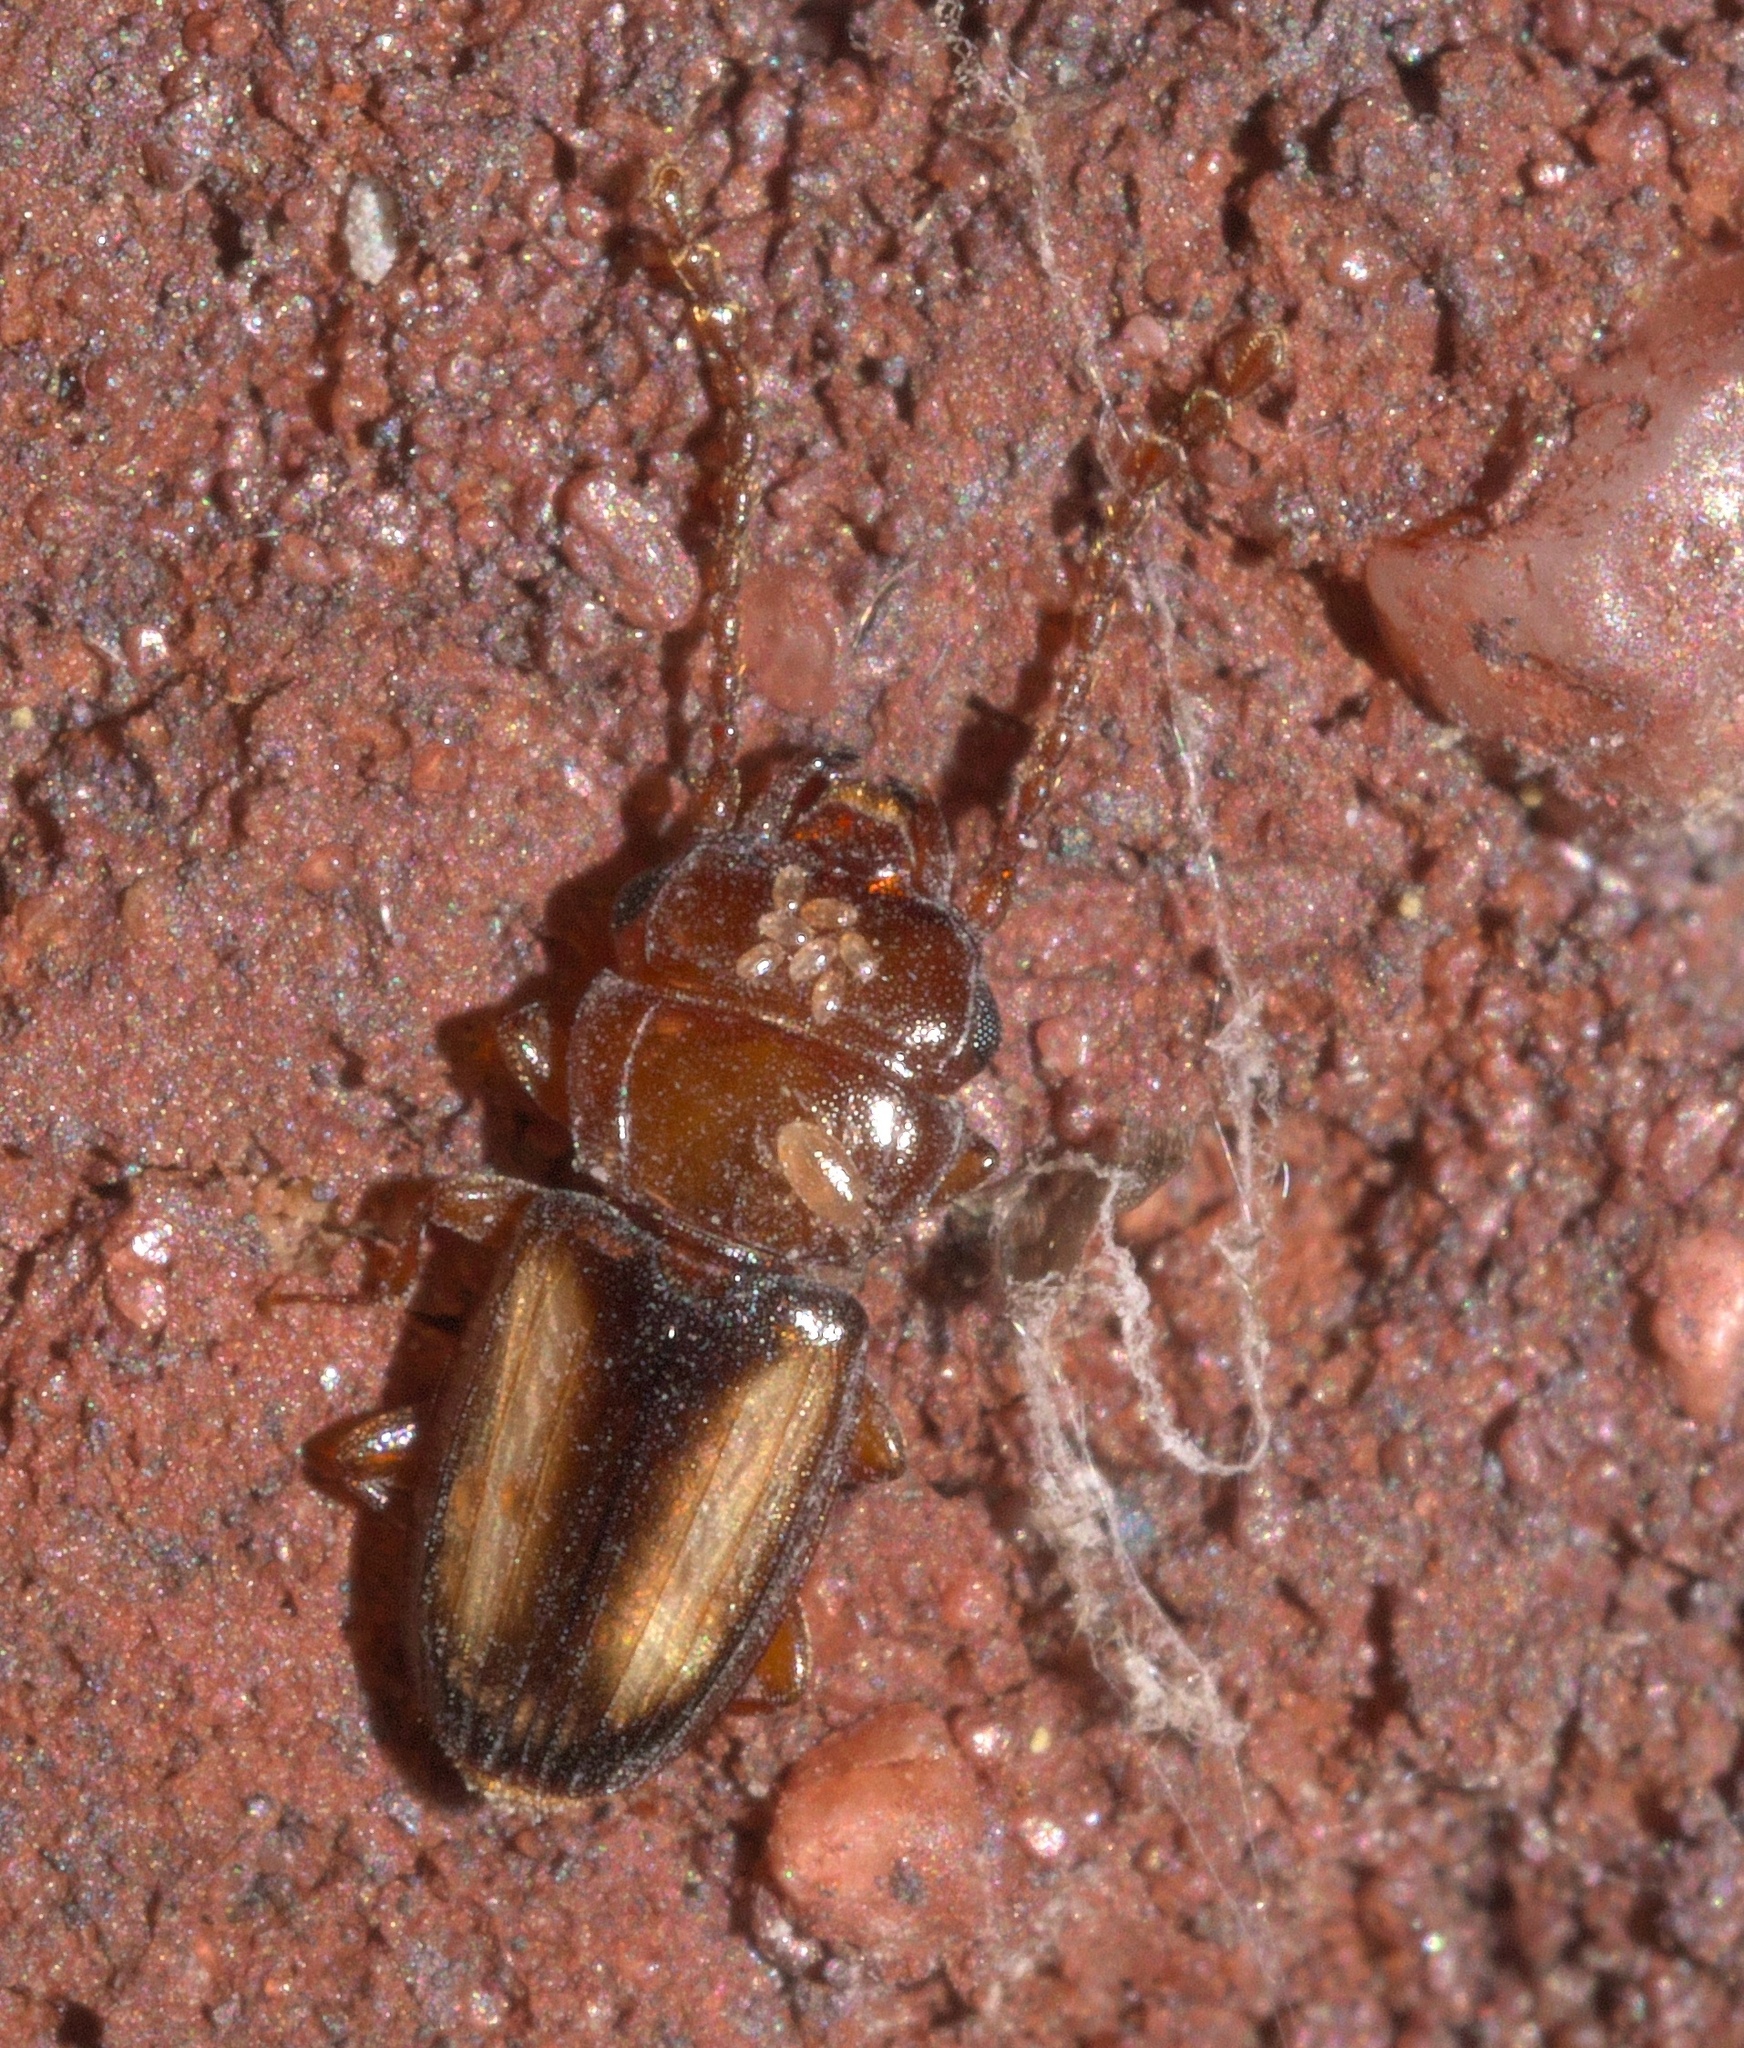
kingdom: Animalia
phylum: Arthropoda
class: Insecta
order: Coleoptera
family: Laemophloeidae
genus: Laemophloeus
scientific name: Laemophloeus terminalis
